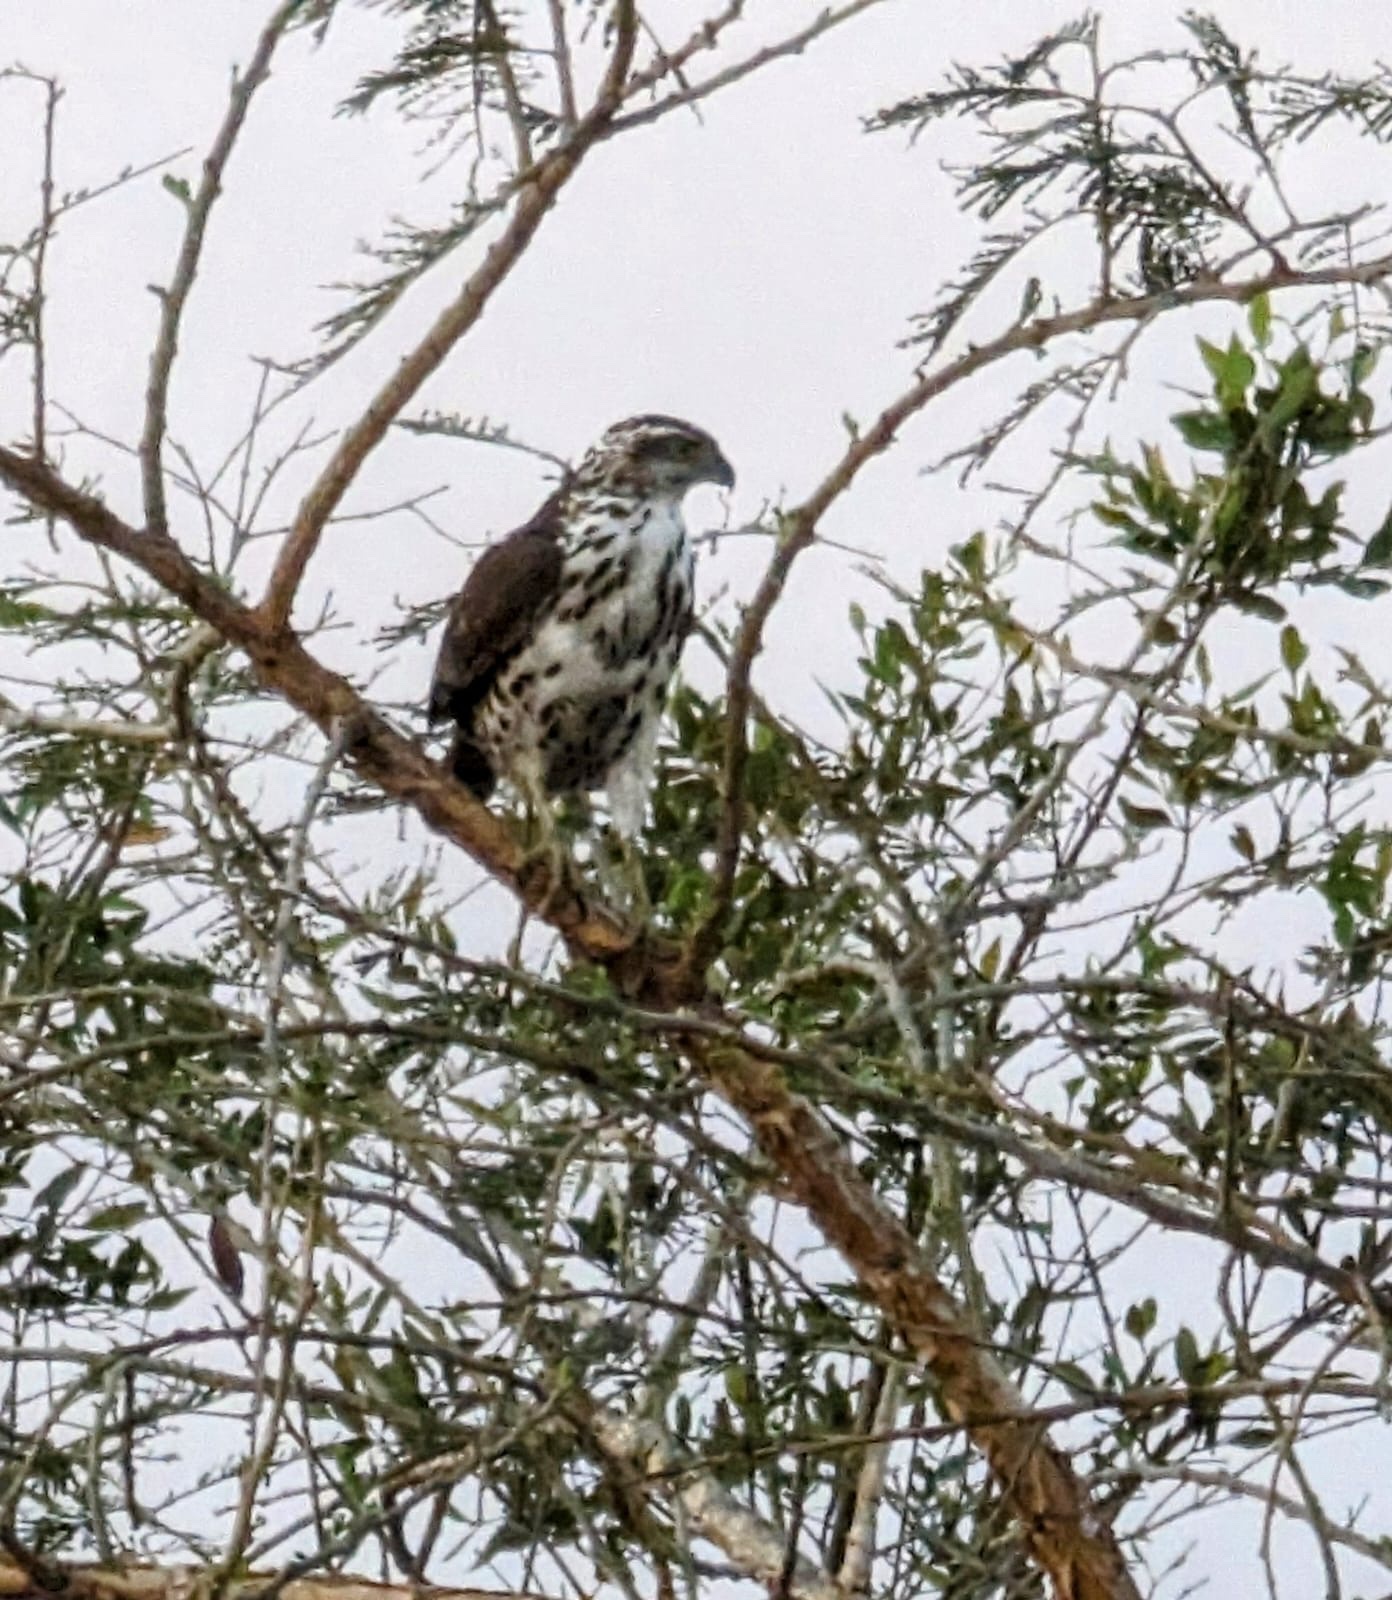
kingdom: Animalia
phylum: Chordata
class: Aves
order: Accipitriformes
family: Accipitridae
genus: Aquila
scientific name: Aquila spilogaster
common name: African hawk-eagle
